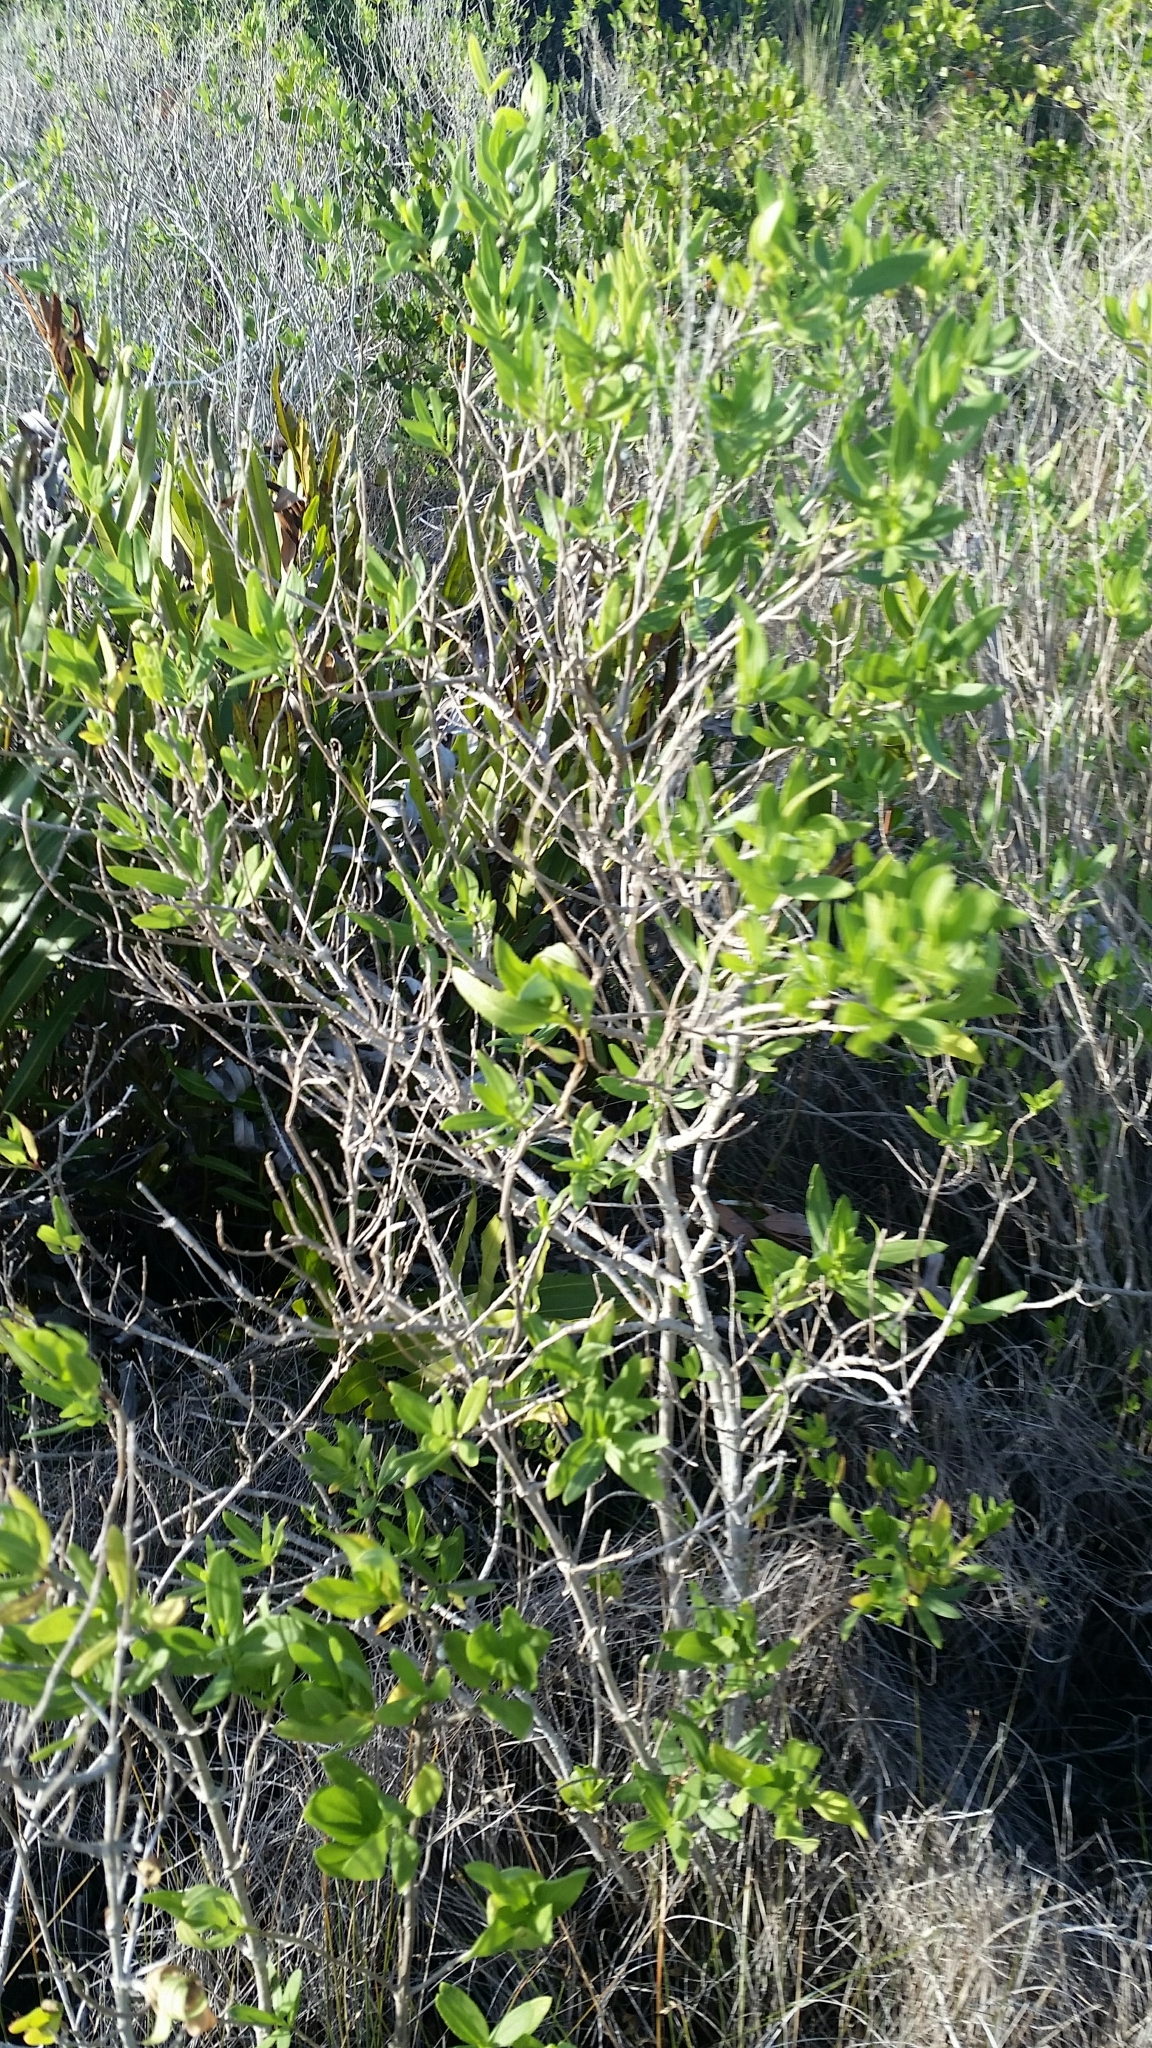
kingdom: Plantae
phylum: Tracheophyta
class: Magnoliopsida
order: Asterales
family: Asteraceae
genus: Iva
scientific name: Iva frutescens
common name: Big-leaved marsh-elder
